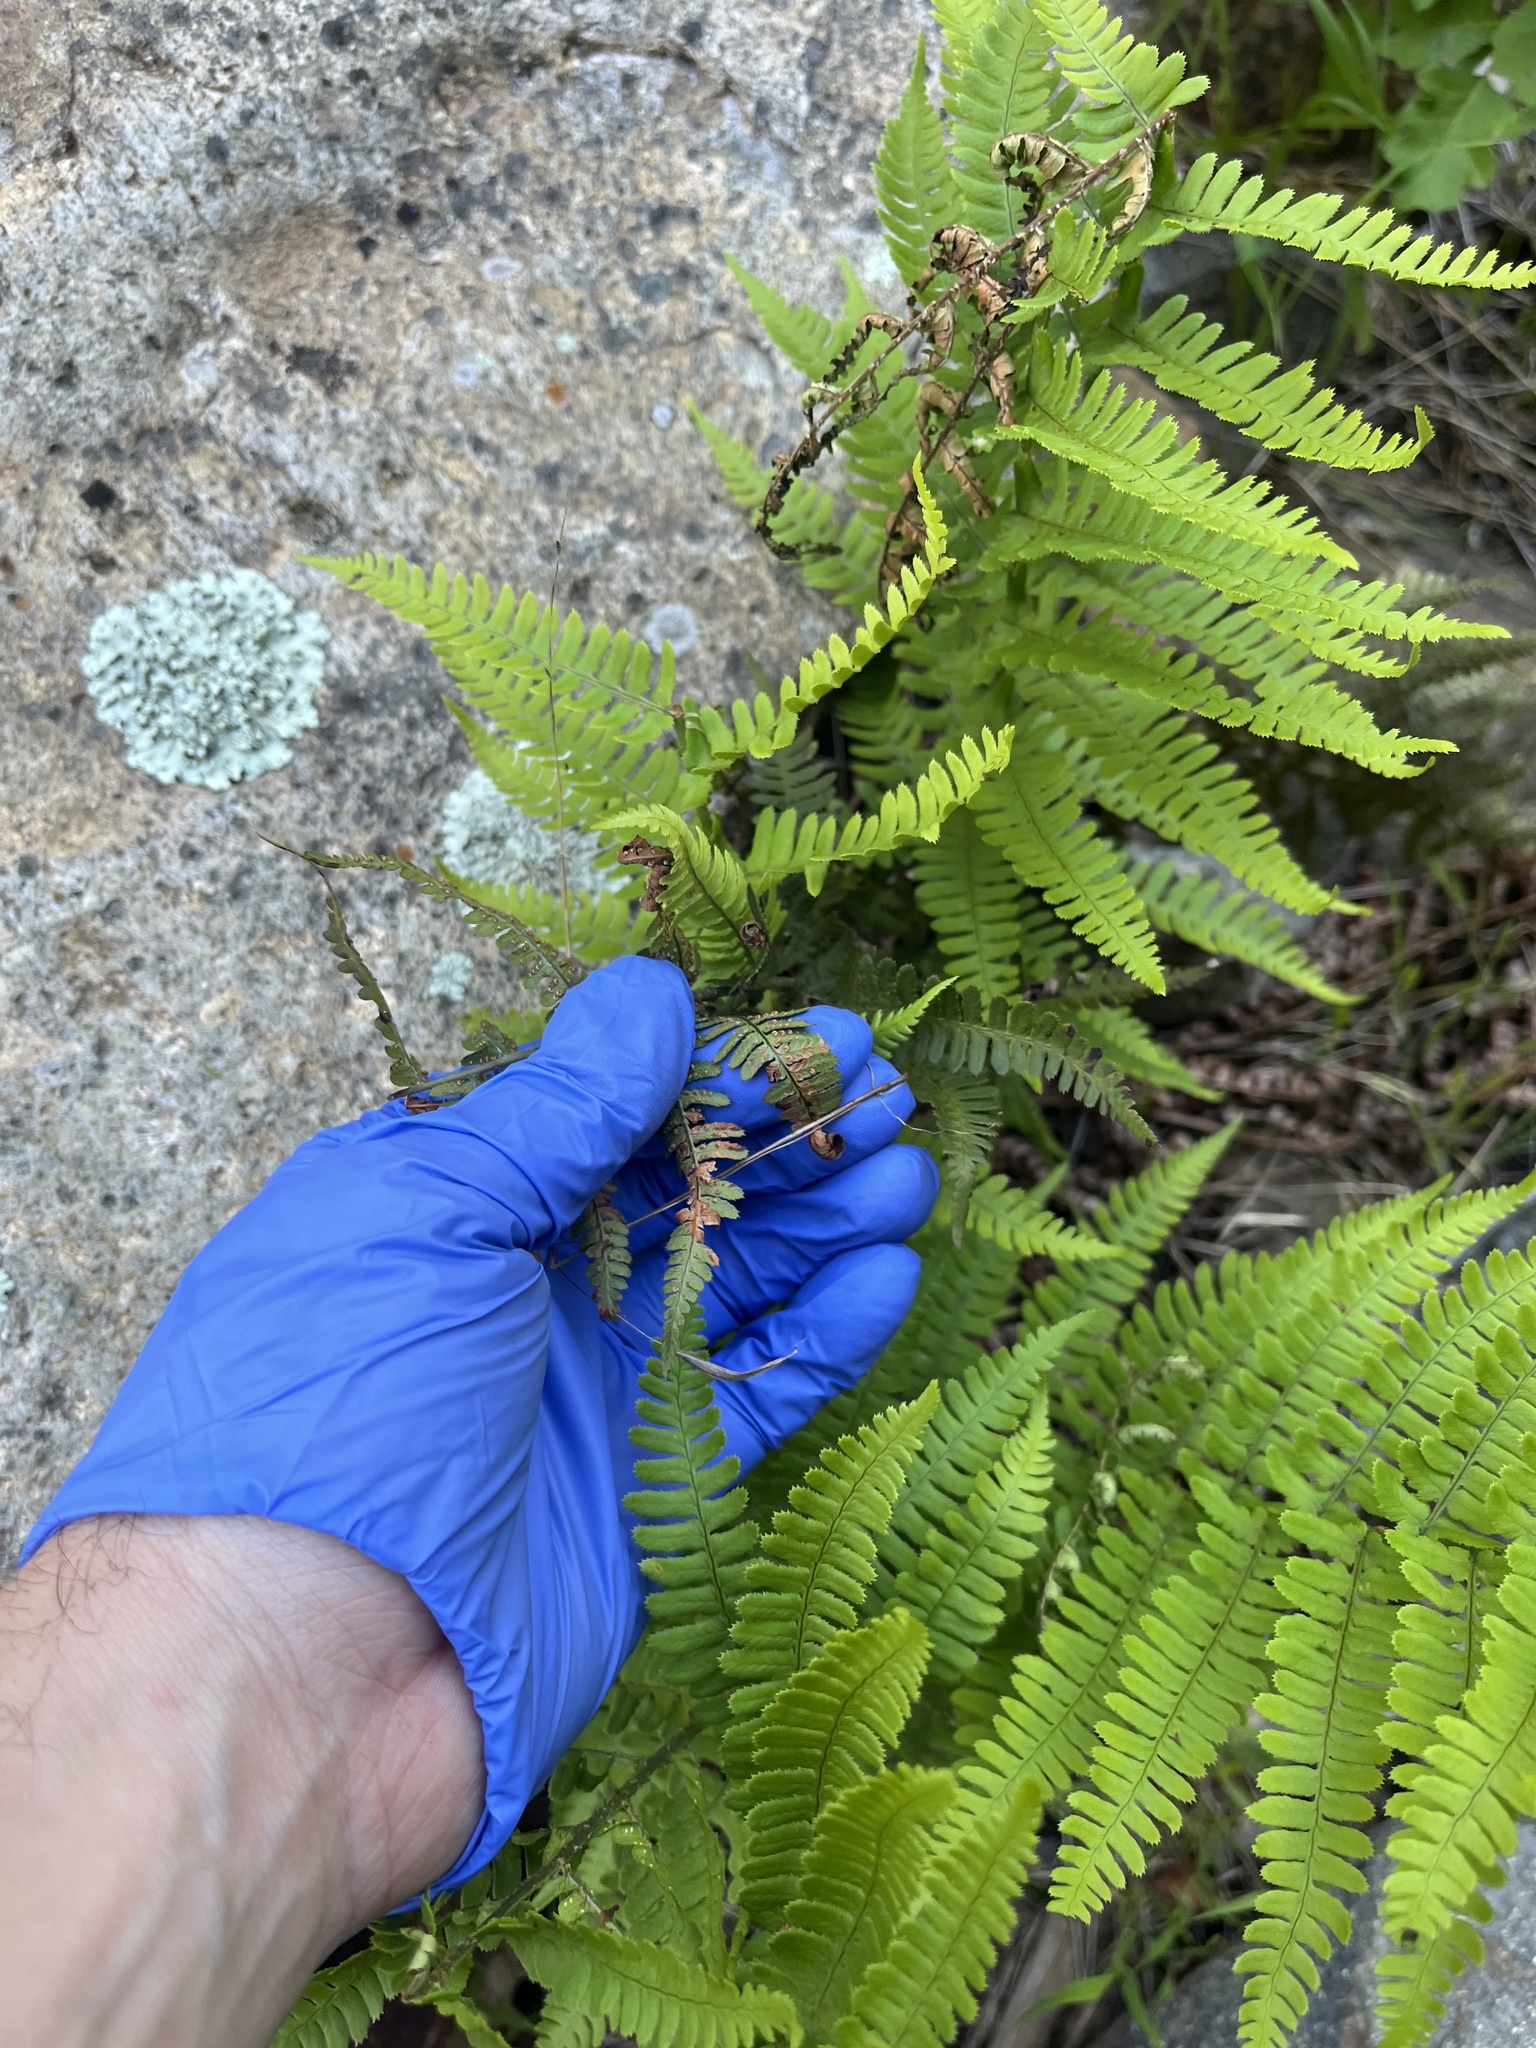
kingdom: Plantae
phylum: Tracheophyta
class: Polypodiopsida
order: Polypodiales
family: Dryopteridaceae
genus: Dryopteris
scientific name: Dryopteris arguta
